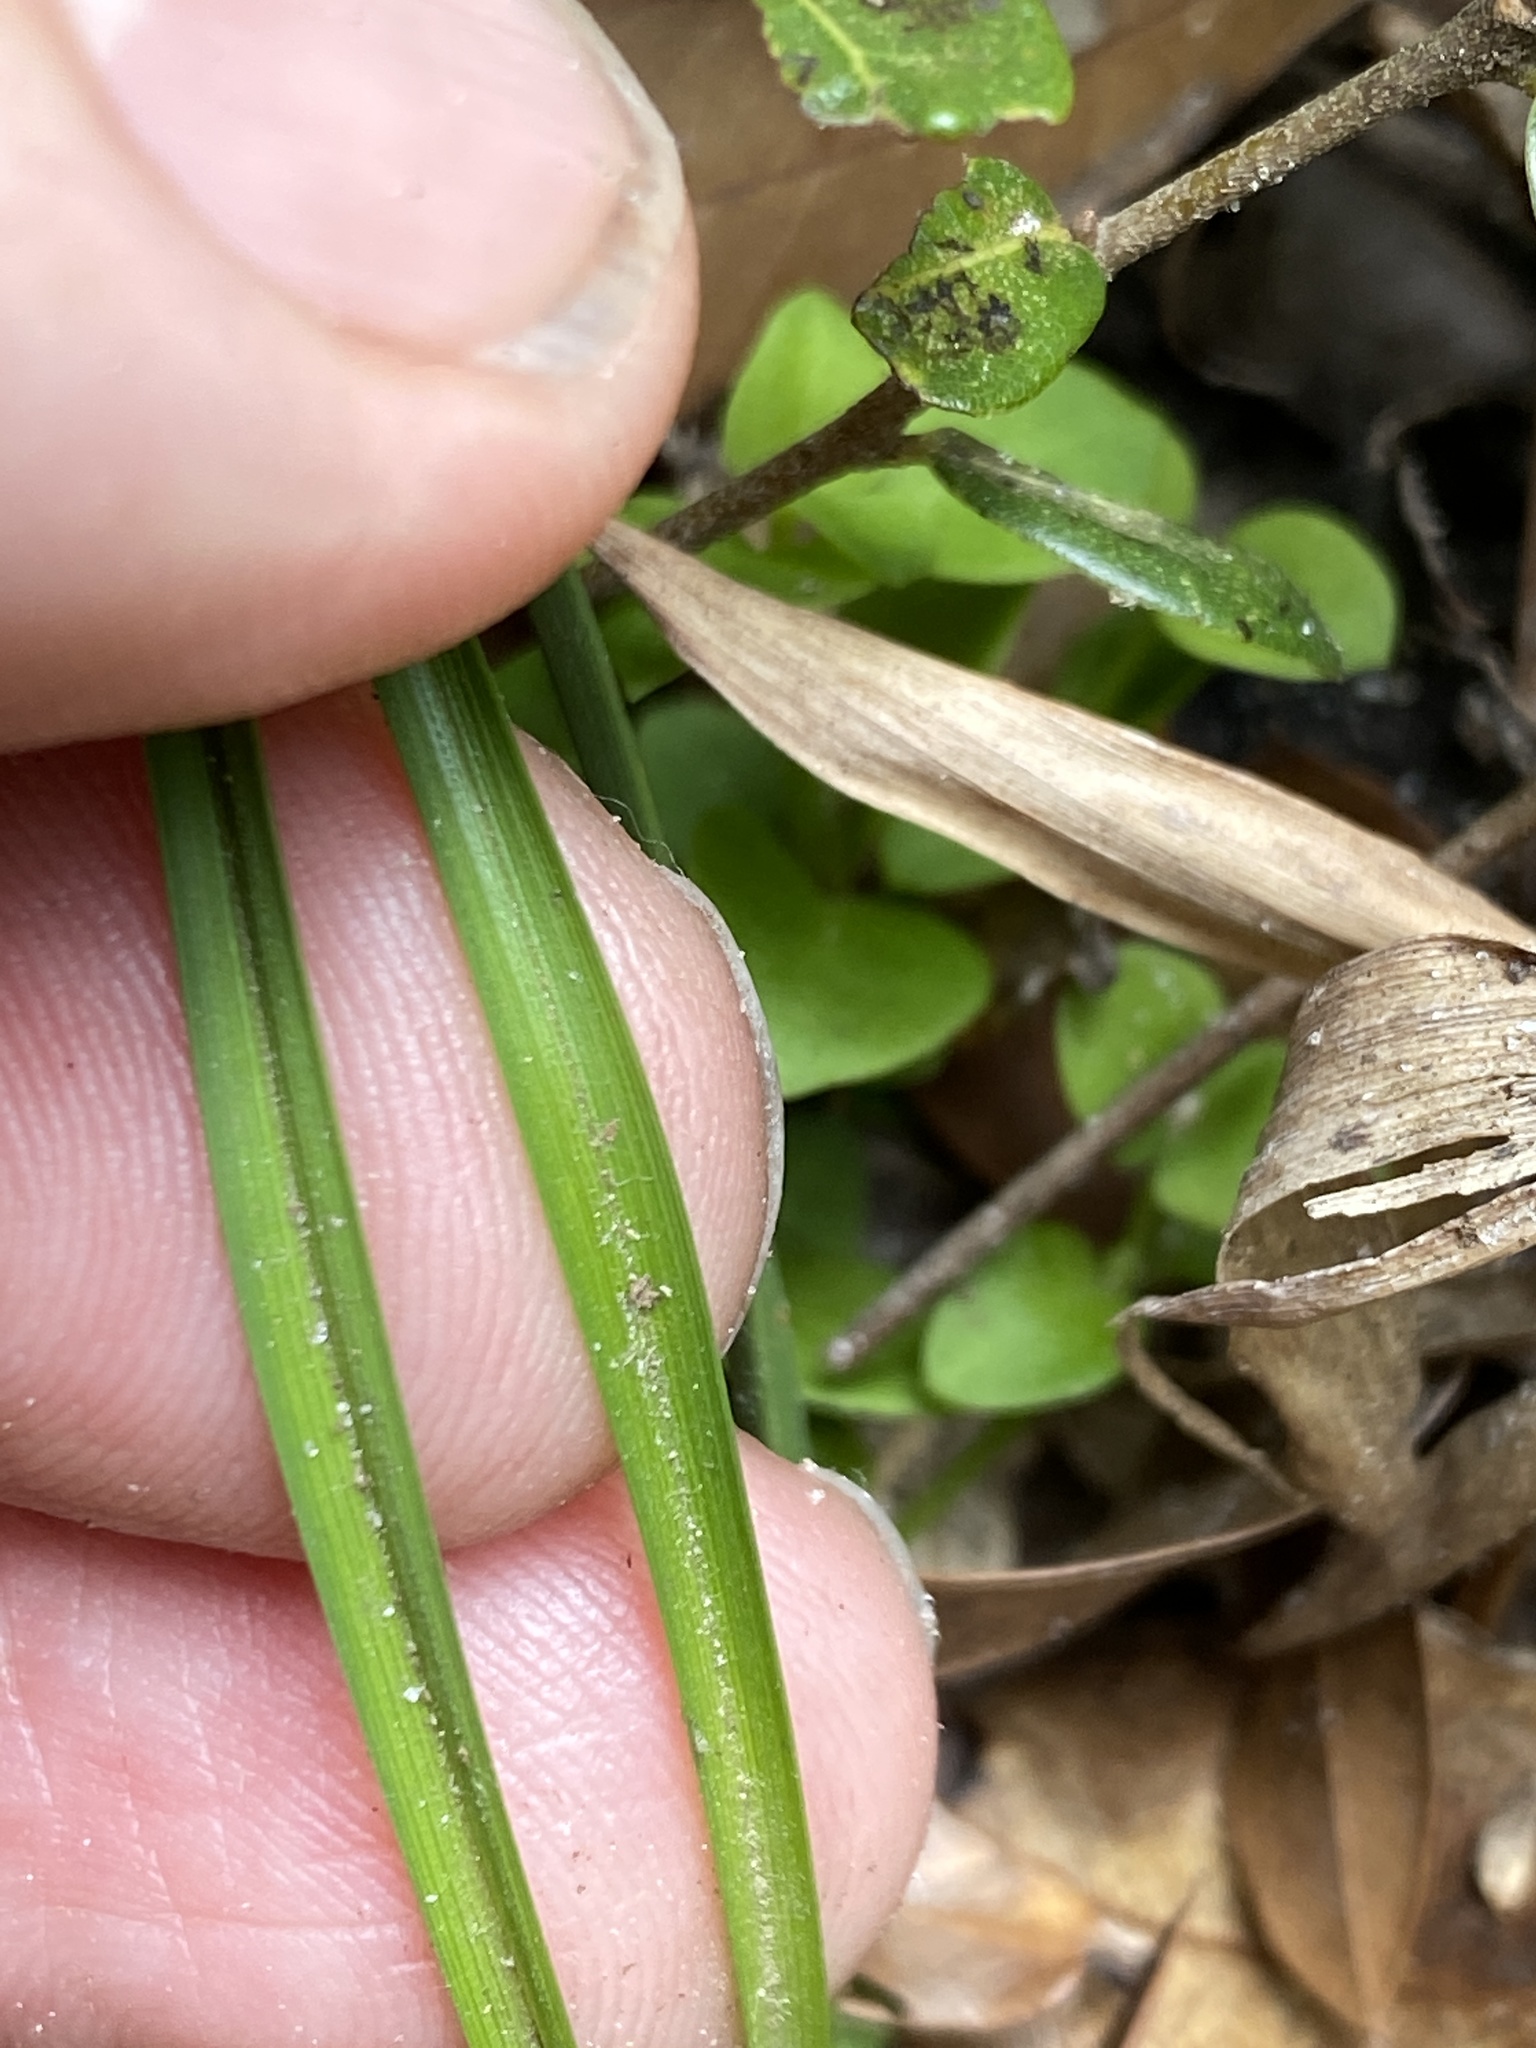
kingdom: Plantae
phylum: Tracheophyta
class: Liliopsida
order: Poales
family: Cyperaceae
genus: Carex
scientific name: Carex tenax
